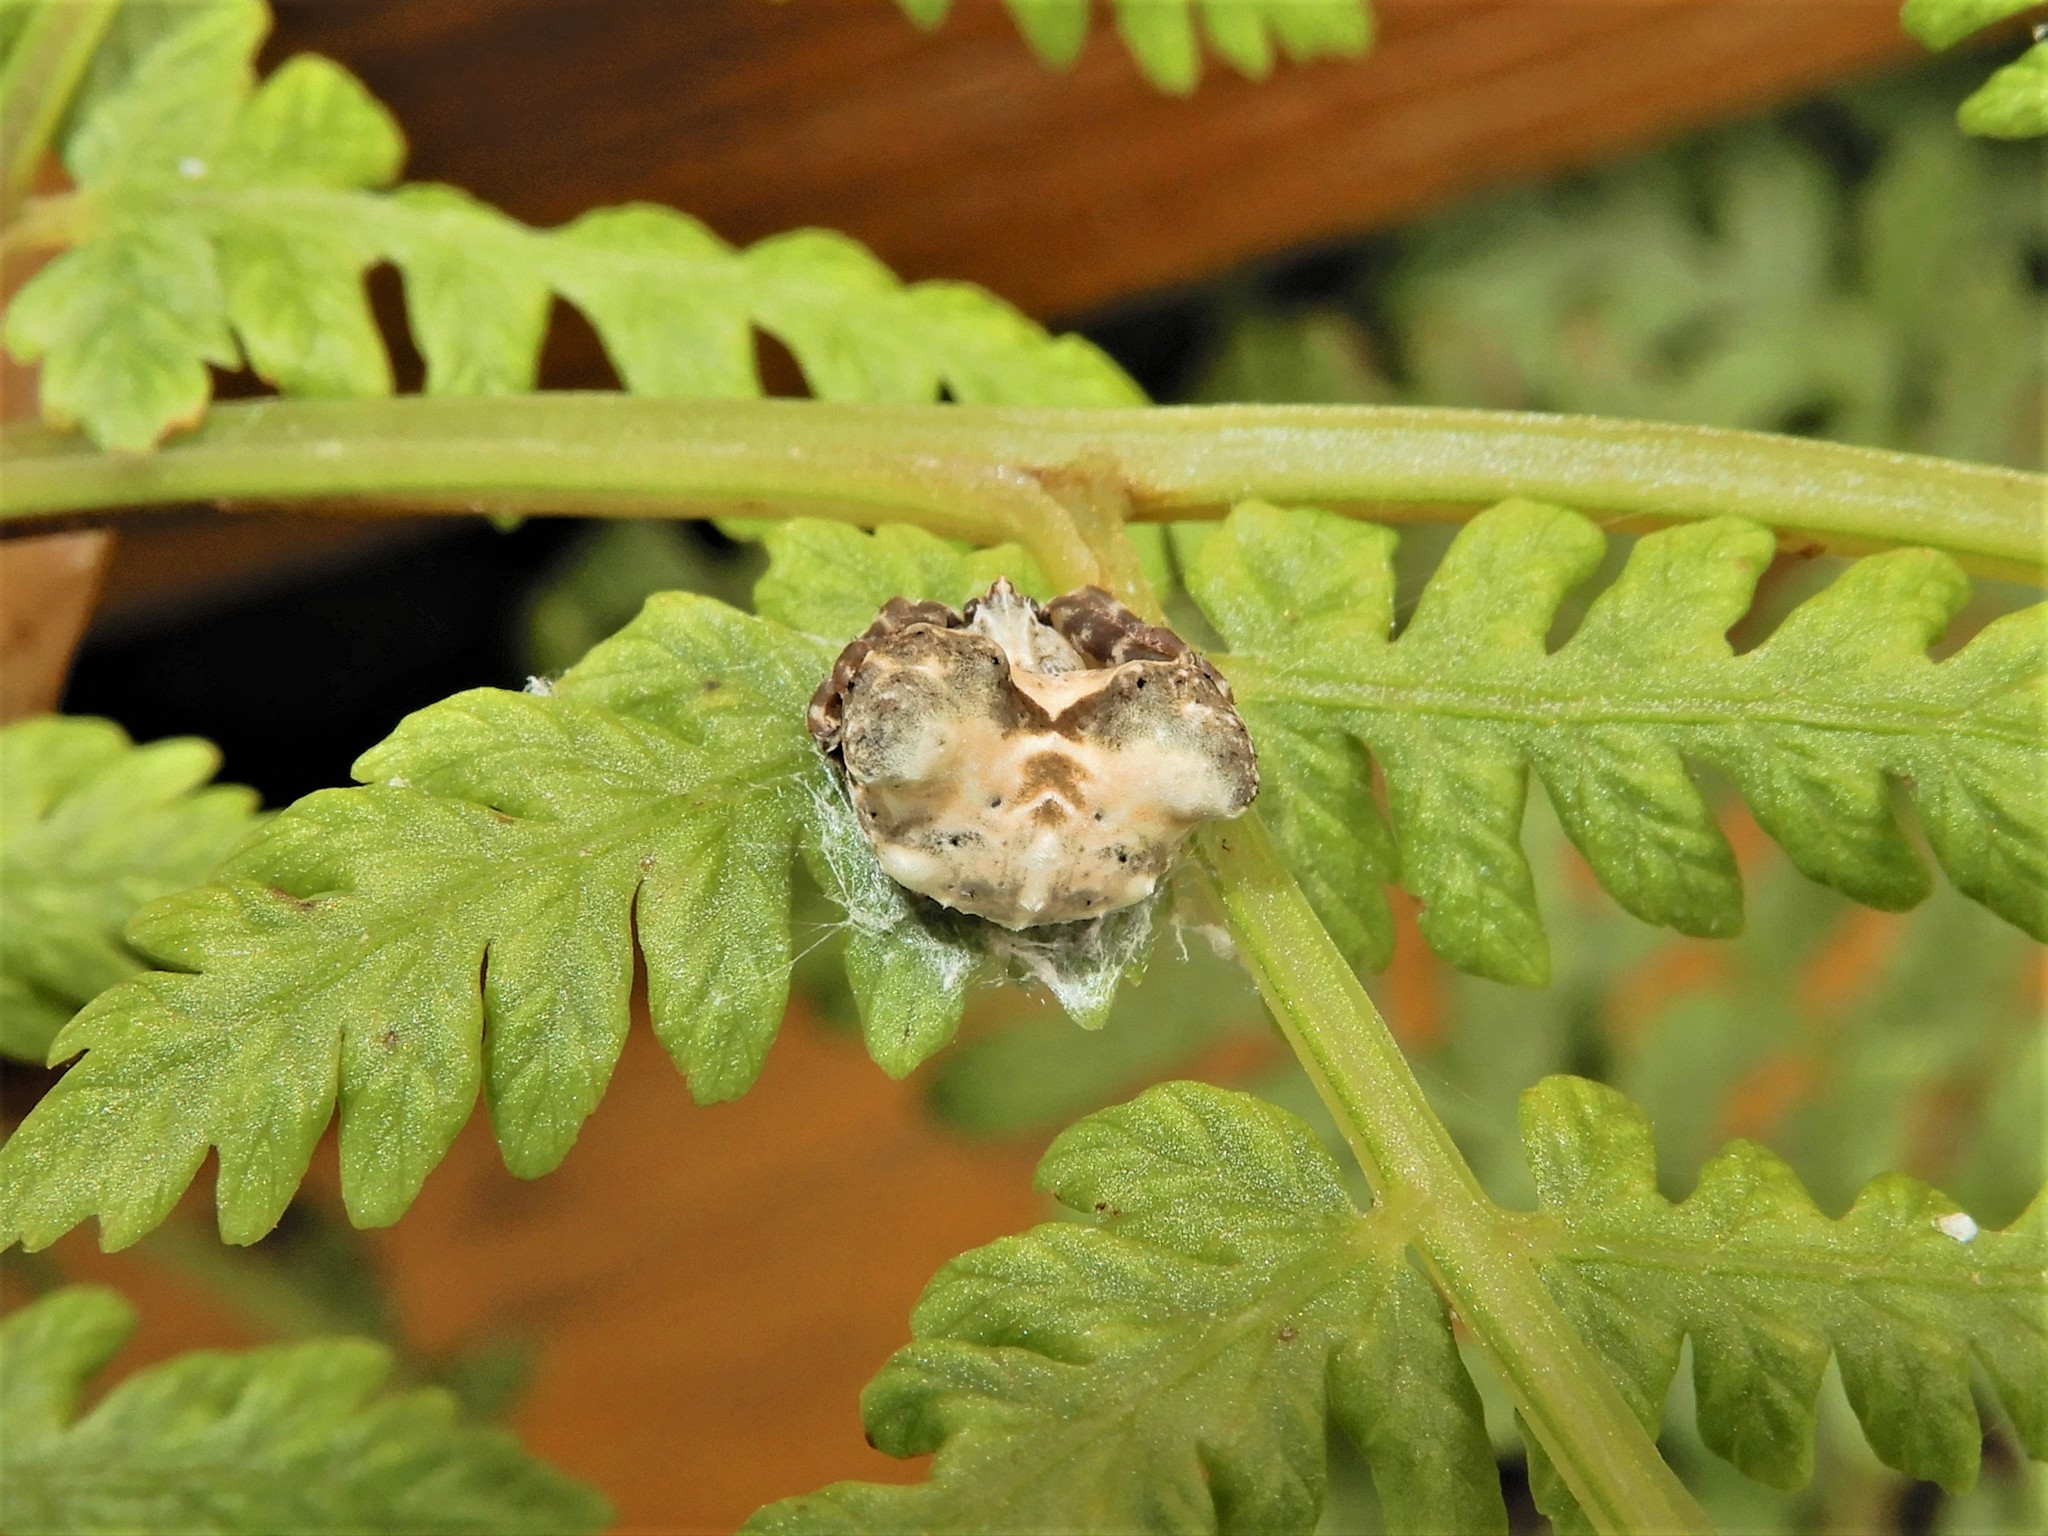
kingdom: Animalia
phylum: Arthropoda
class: Arachnida
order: Araneae
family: Araneidae
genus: Celaenia
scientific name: Celaenia olivacea
